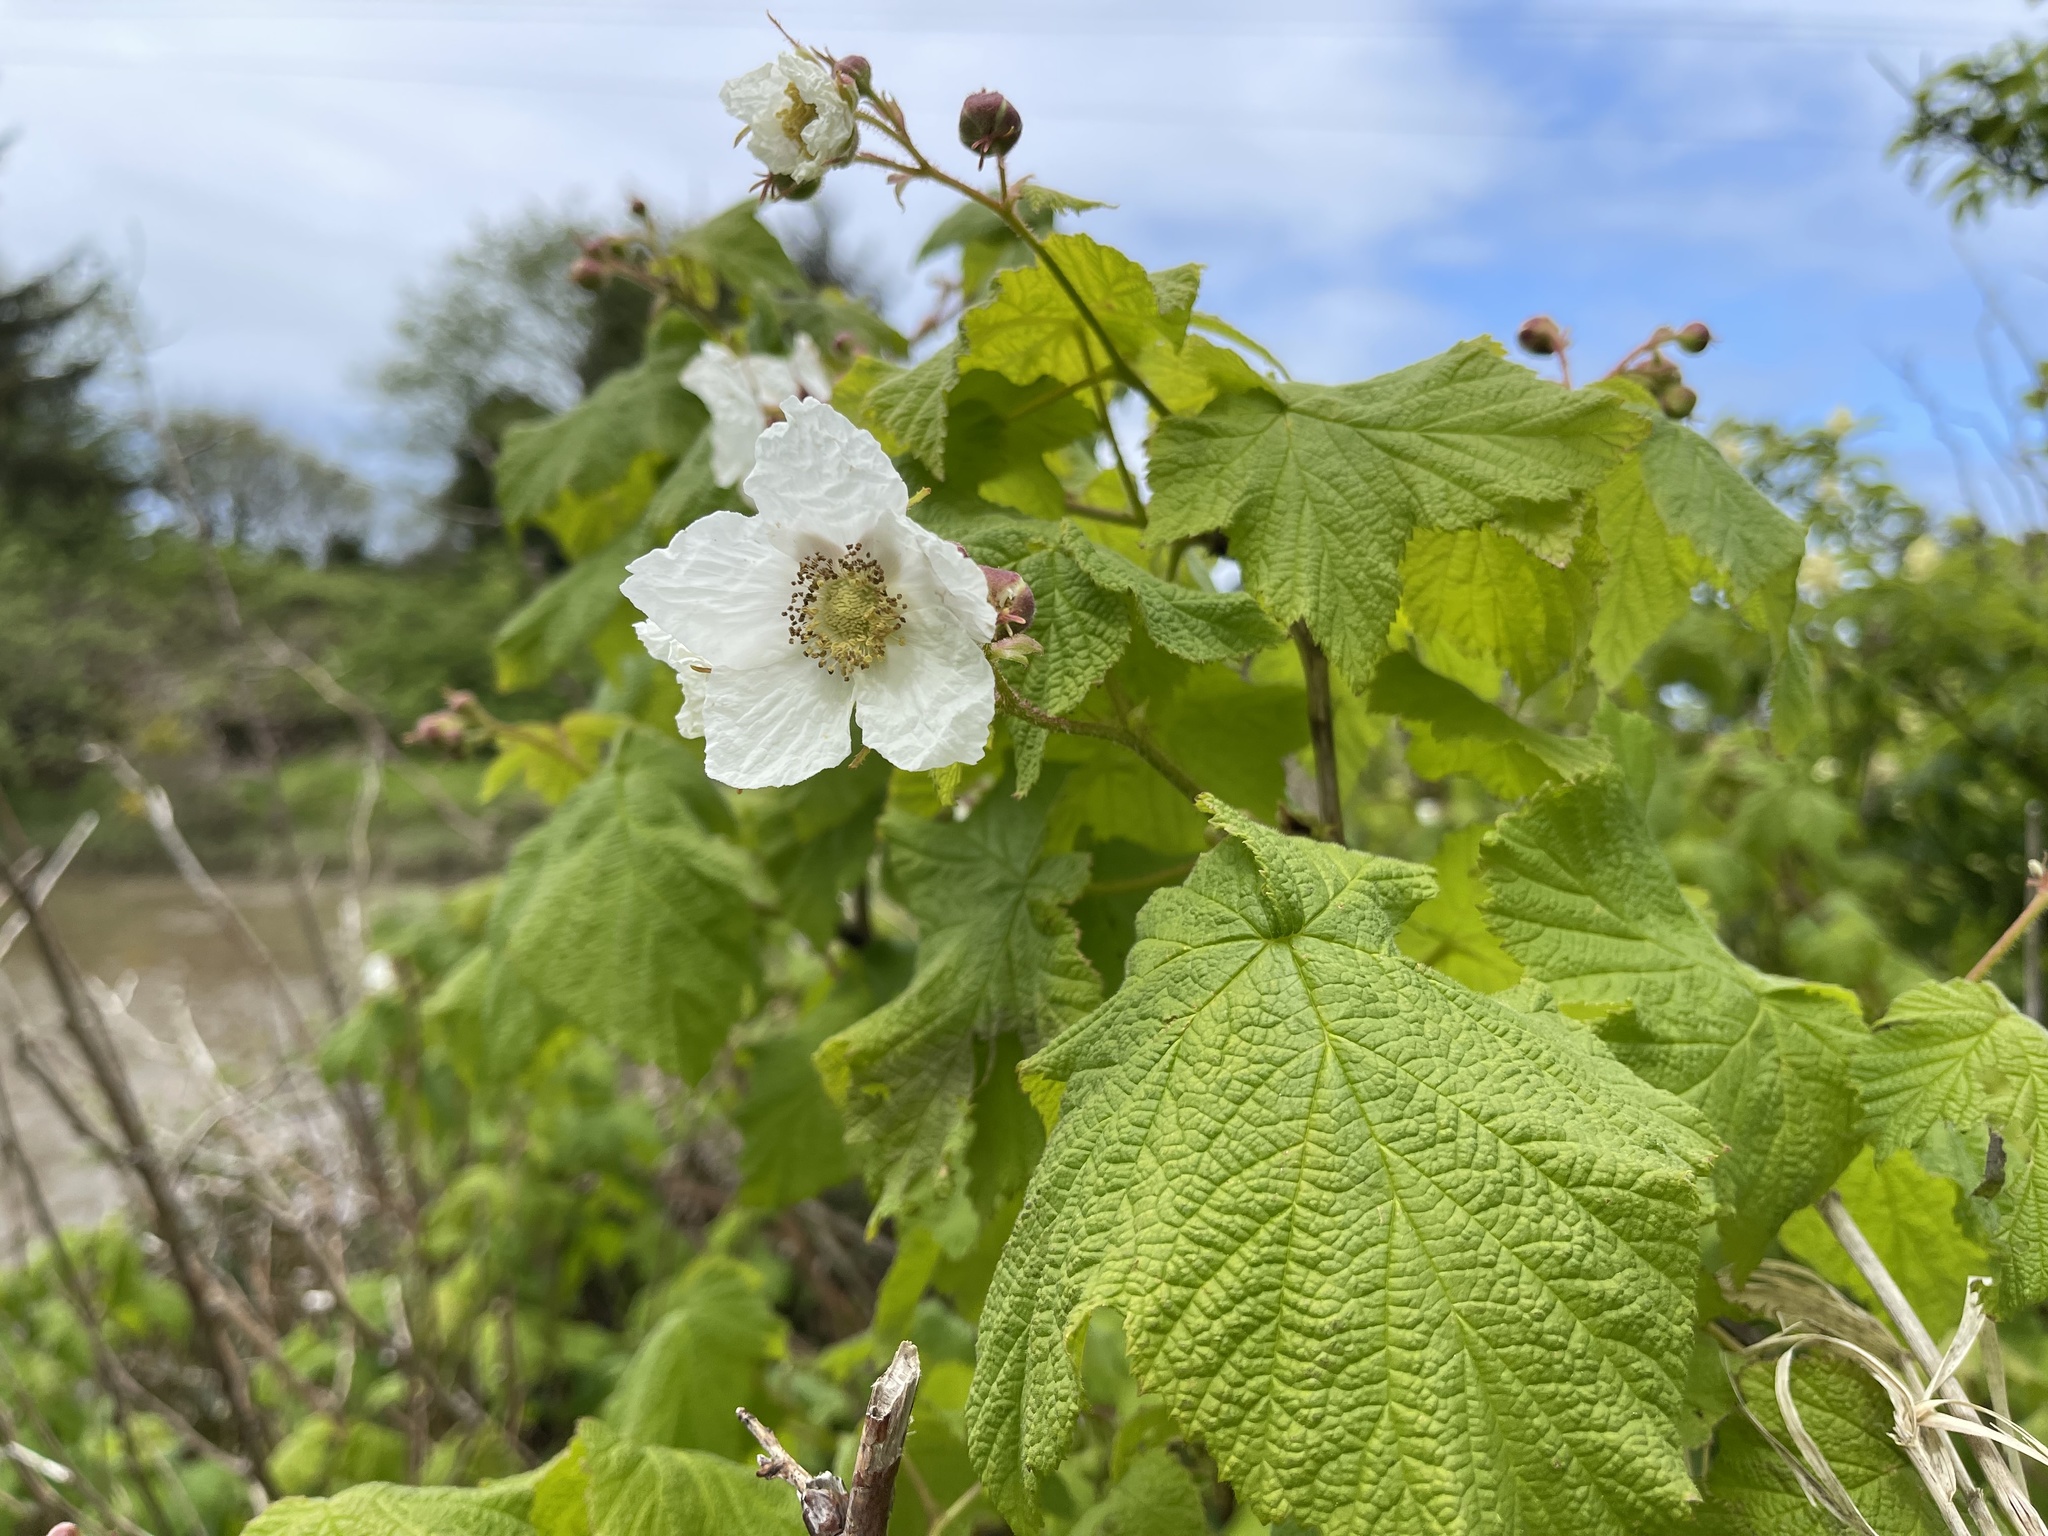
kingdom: Plantae
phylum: Tracheophyta
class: Magnoliopsida
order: Rosales
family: Rosaceae
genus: Rubus
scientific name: Rubus parviflorus
